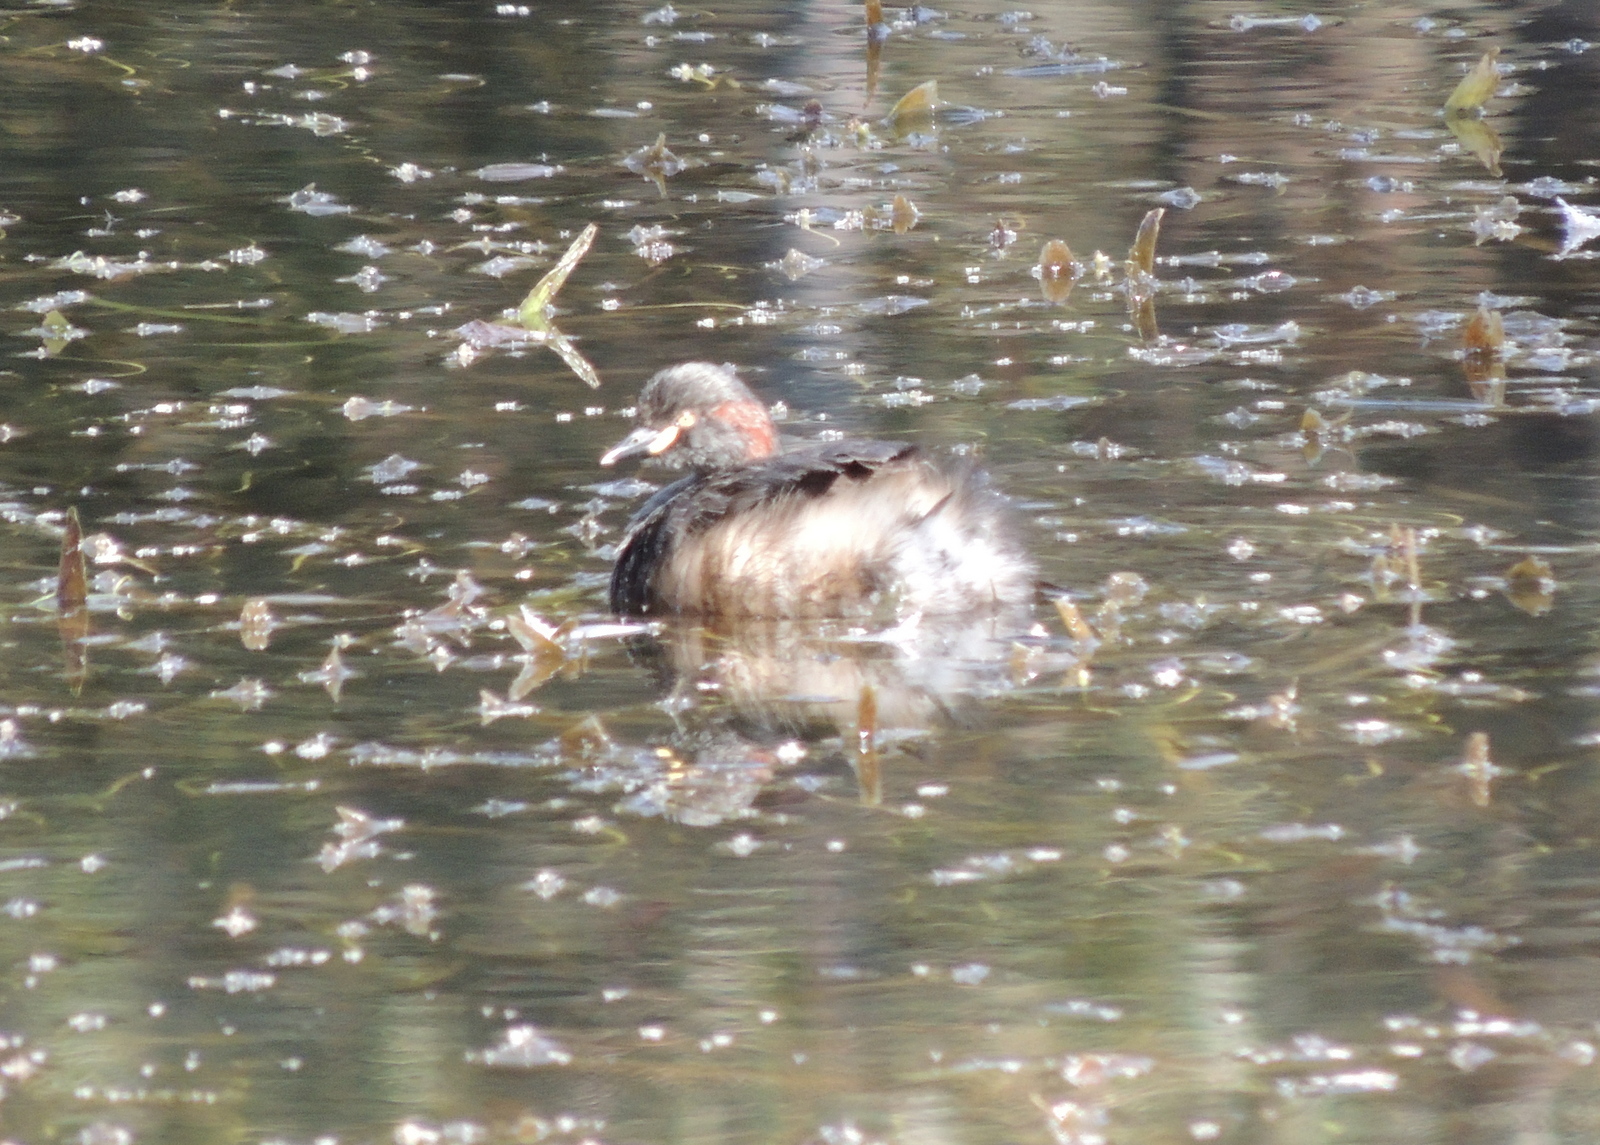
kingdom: Animalia
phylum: Chordata
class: Aves
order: Podicipediformes
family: Podicipedidae
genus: Tachybaptus
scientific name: Tachybaptus novaehollandiae
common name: Australasian grebe
